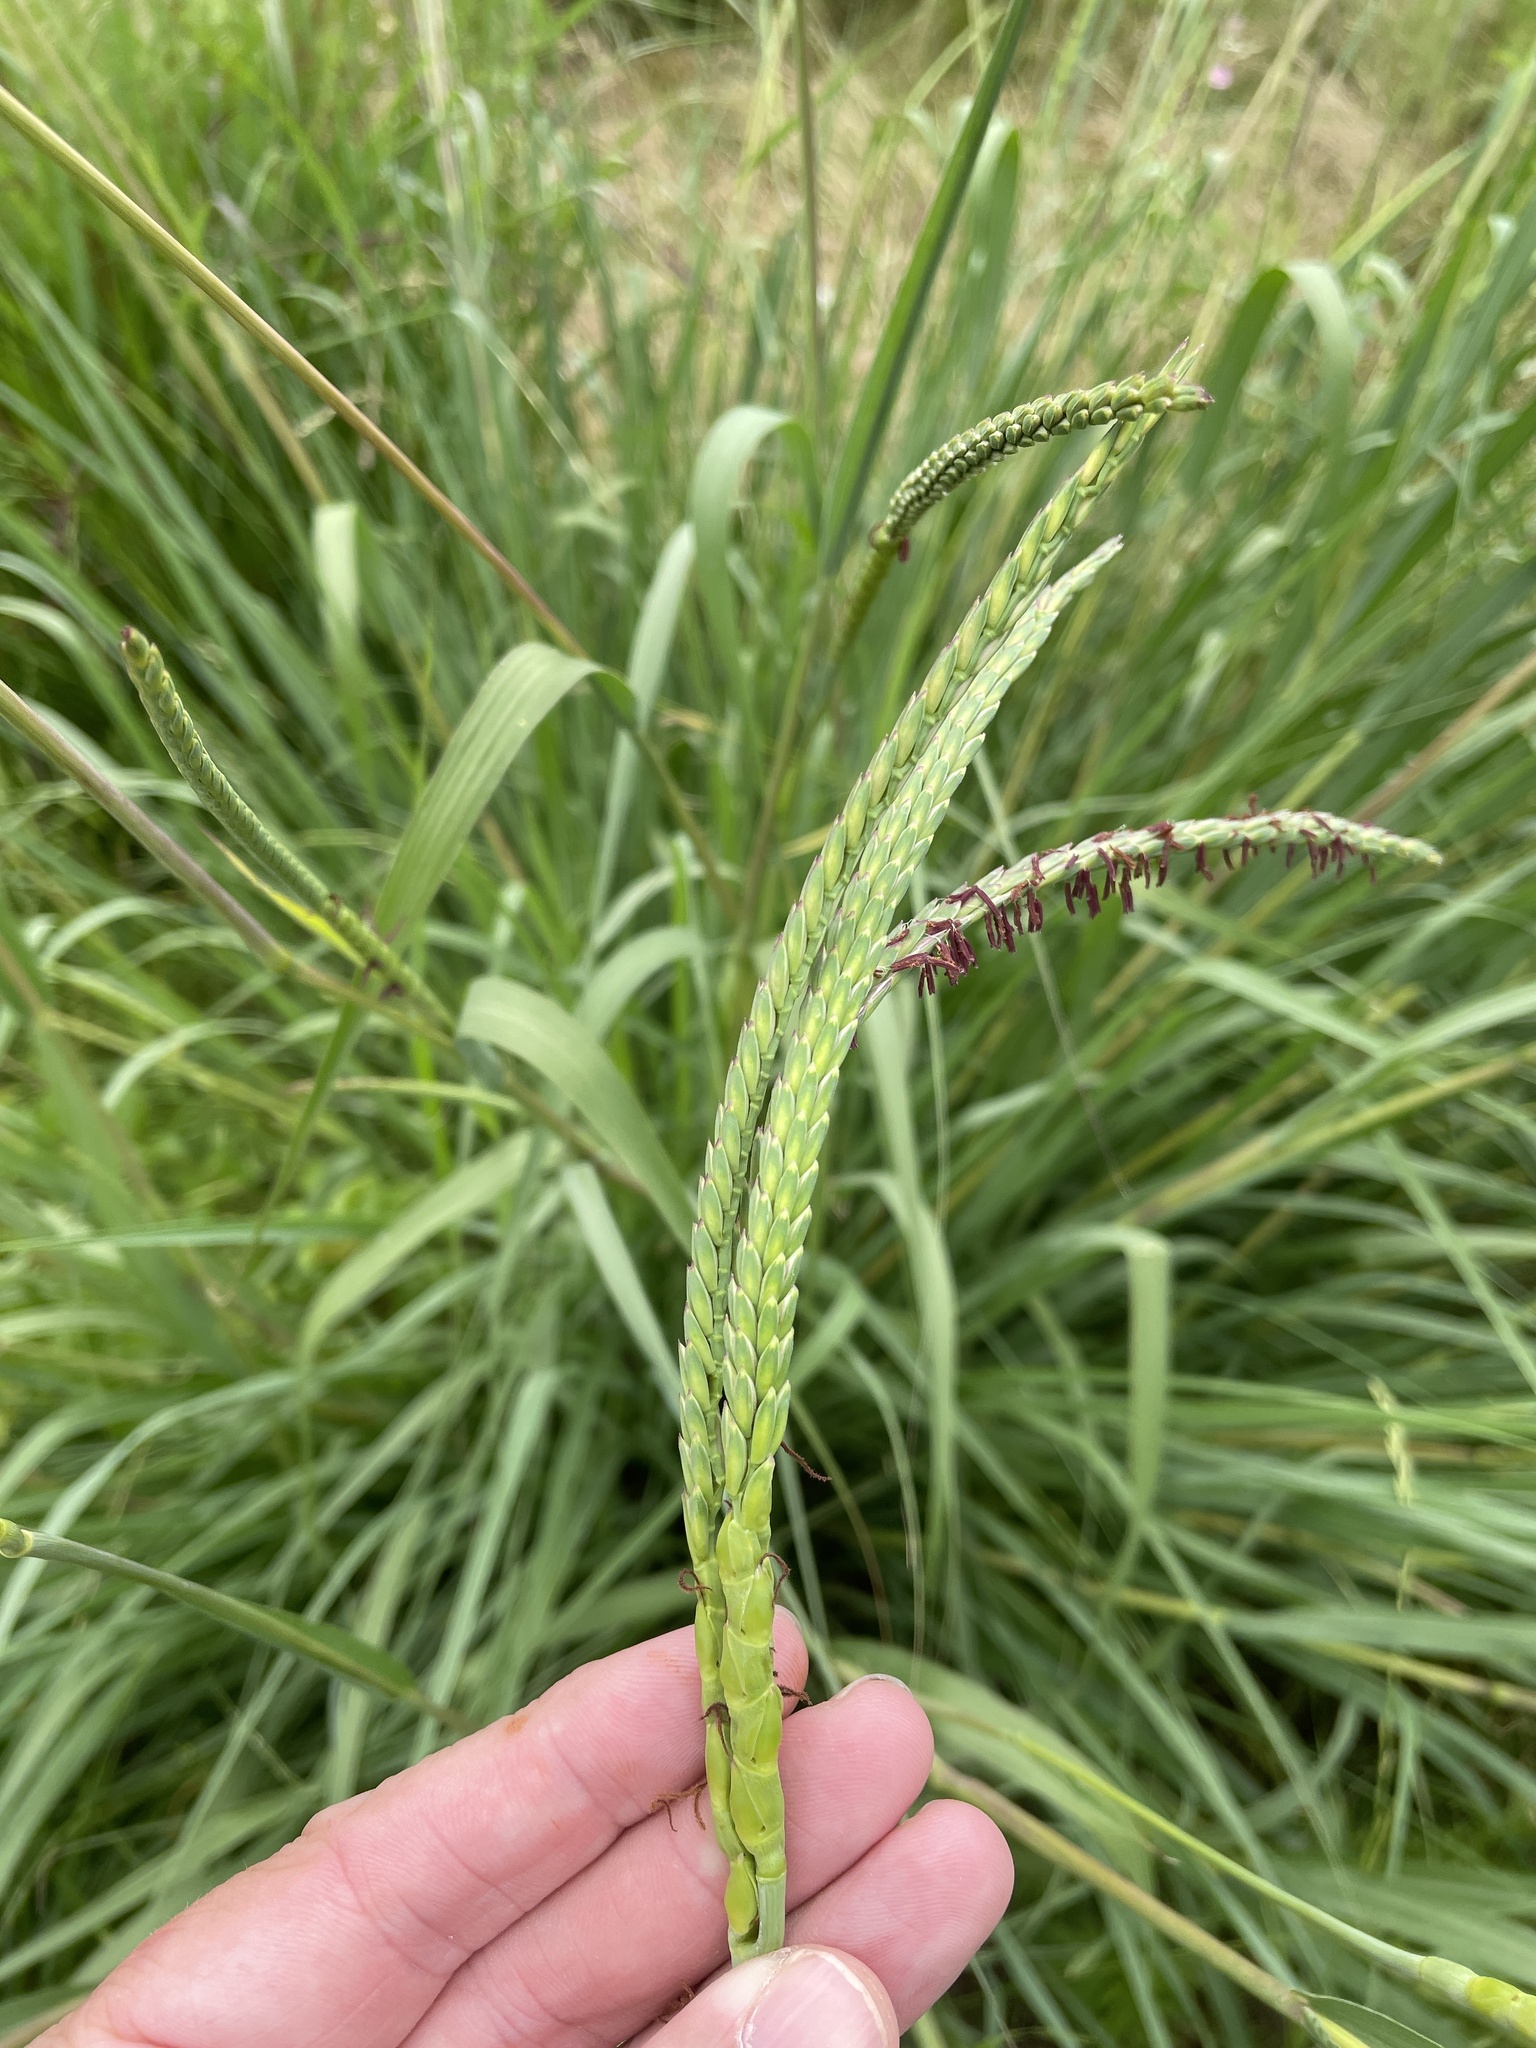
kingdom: Plantae
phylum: Tracheophyta
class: Liliopsida
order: Poales
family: Poaceae
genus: Tripsacum
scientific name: Tripsacum dactyloides
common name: Buffalo-grass
